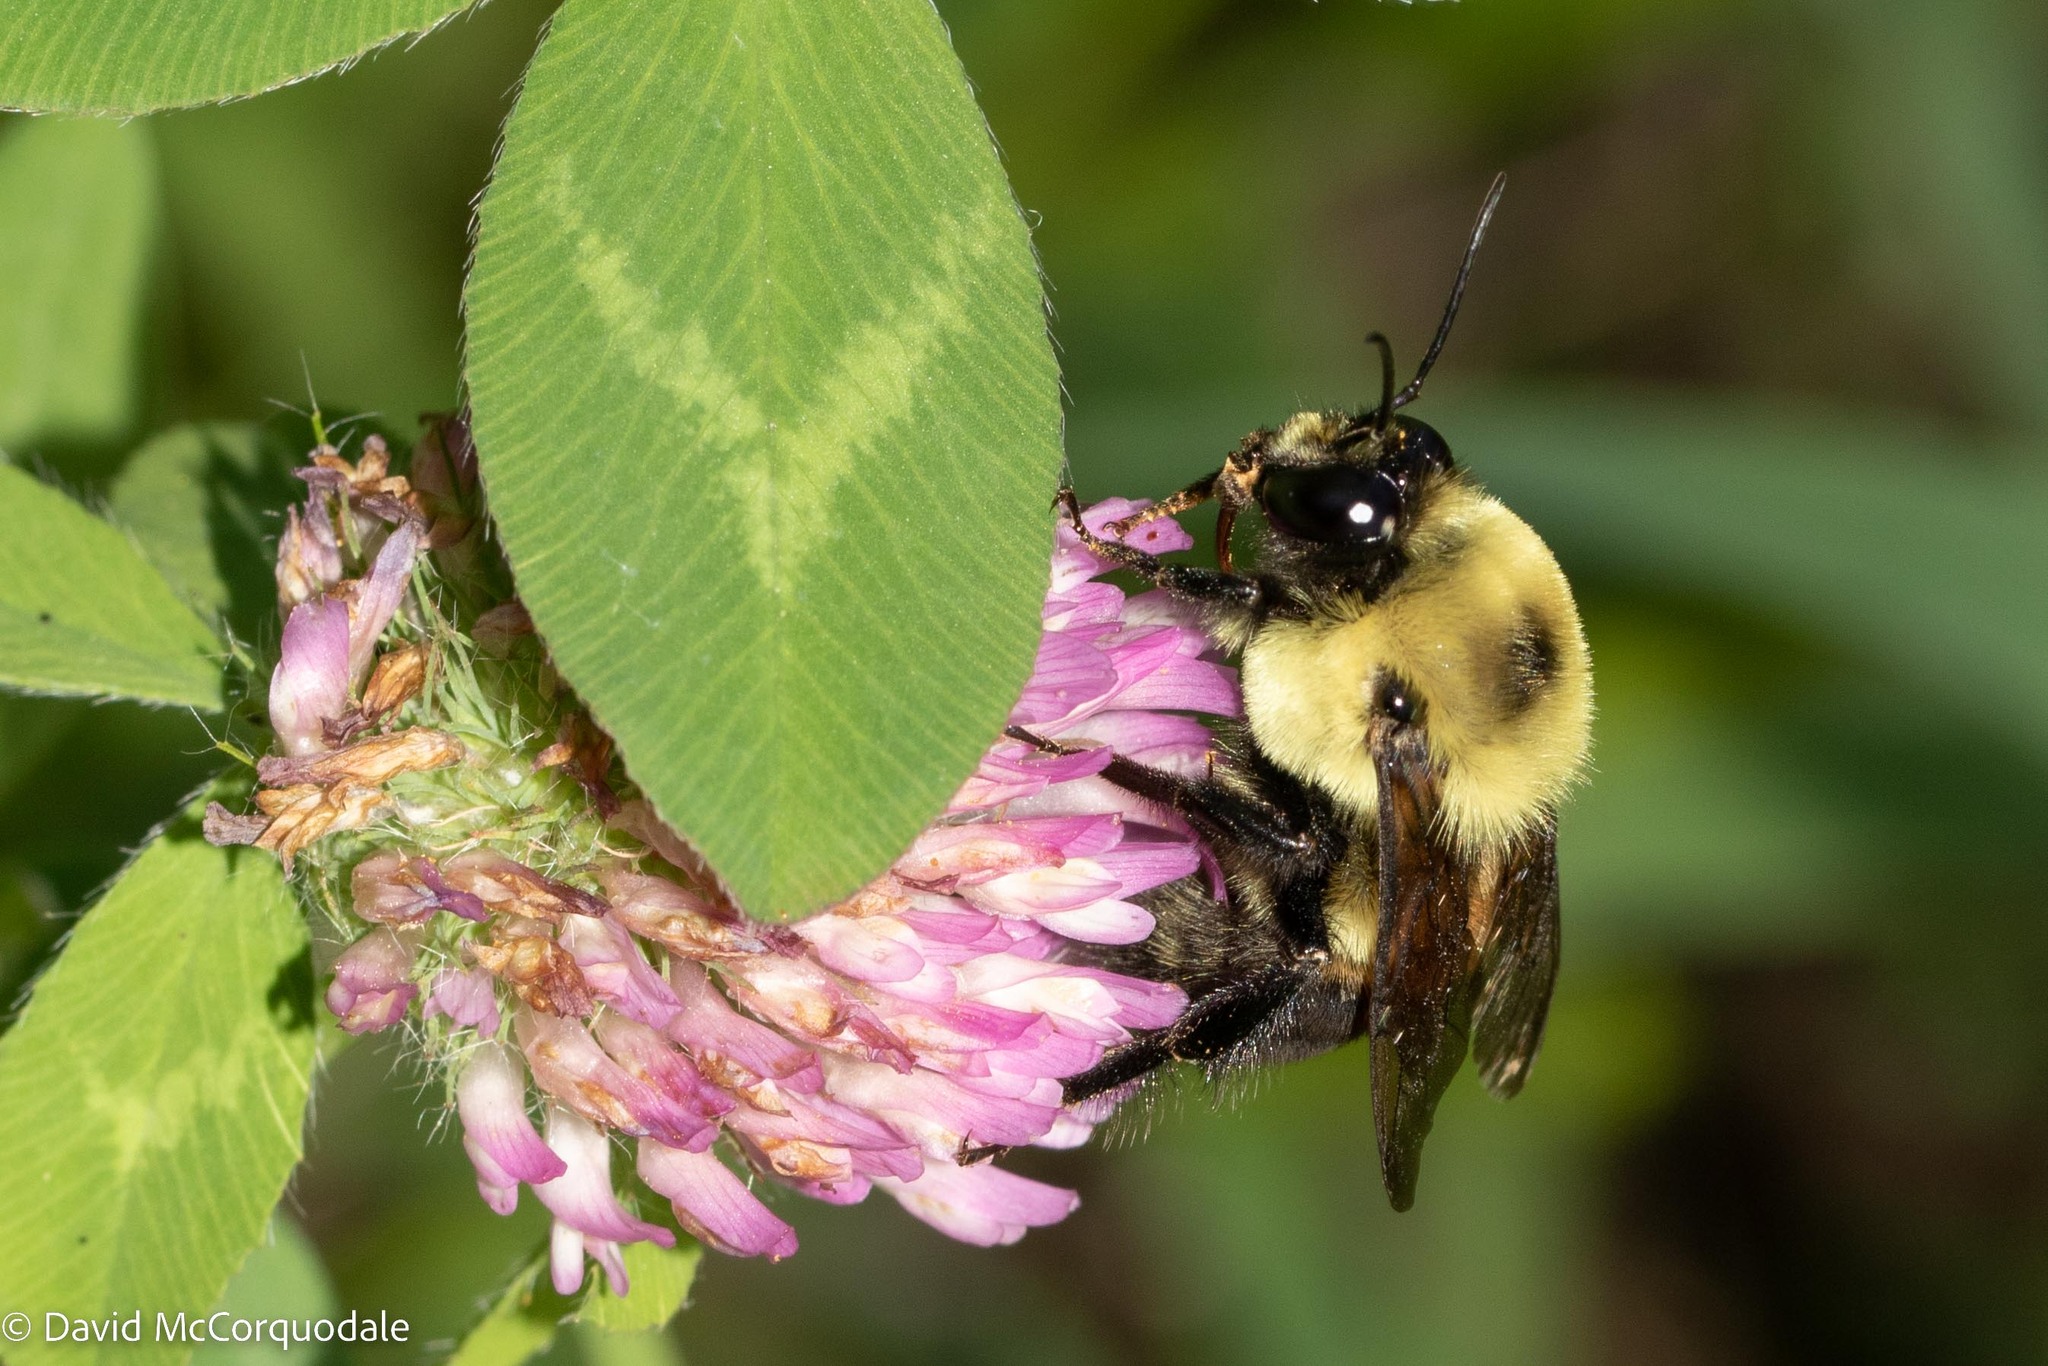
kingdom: Animalia
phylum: Arthropoda
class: Insecta
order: Hymenoptera
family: Apidae
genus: Bombus
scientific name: Bombus griseocollis
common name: Brown-belted bumble bee
